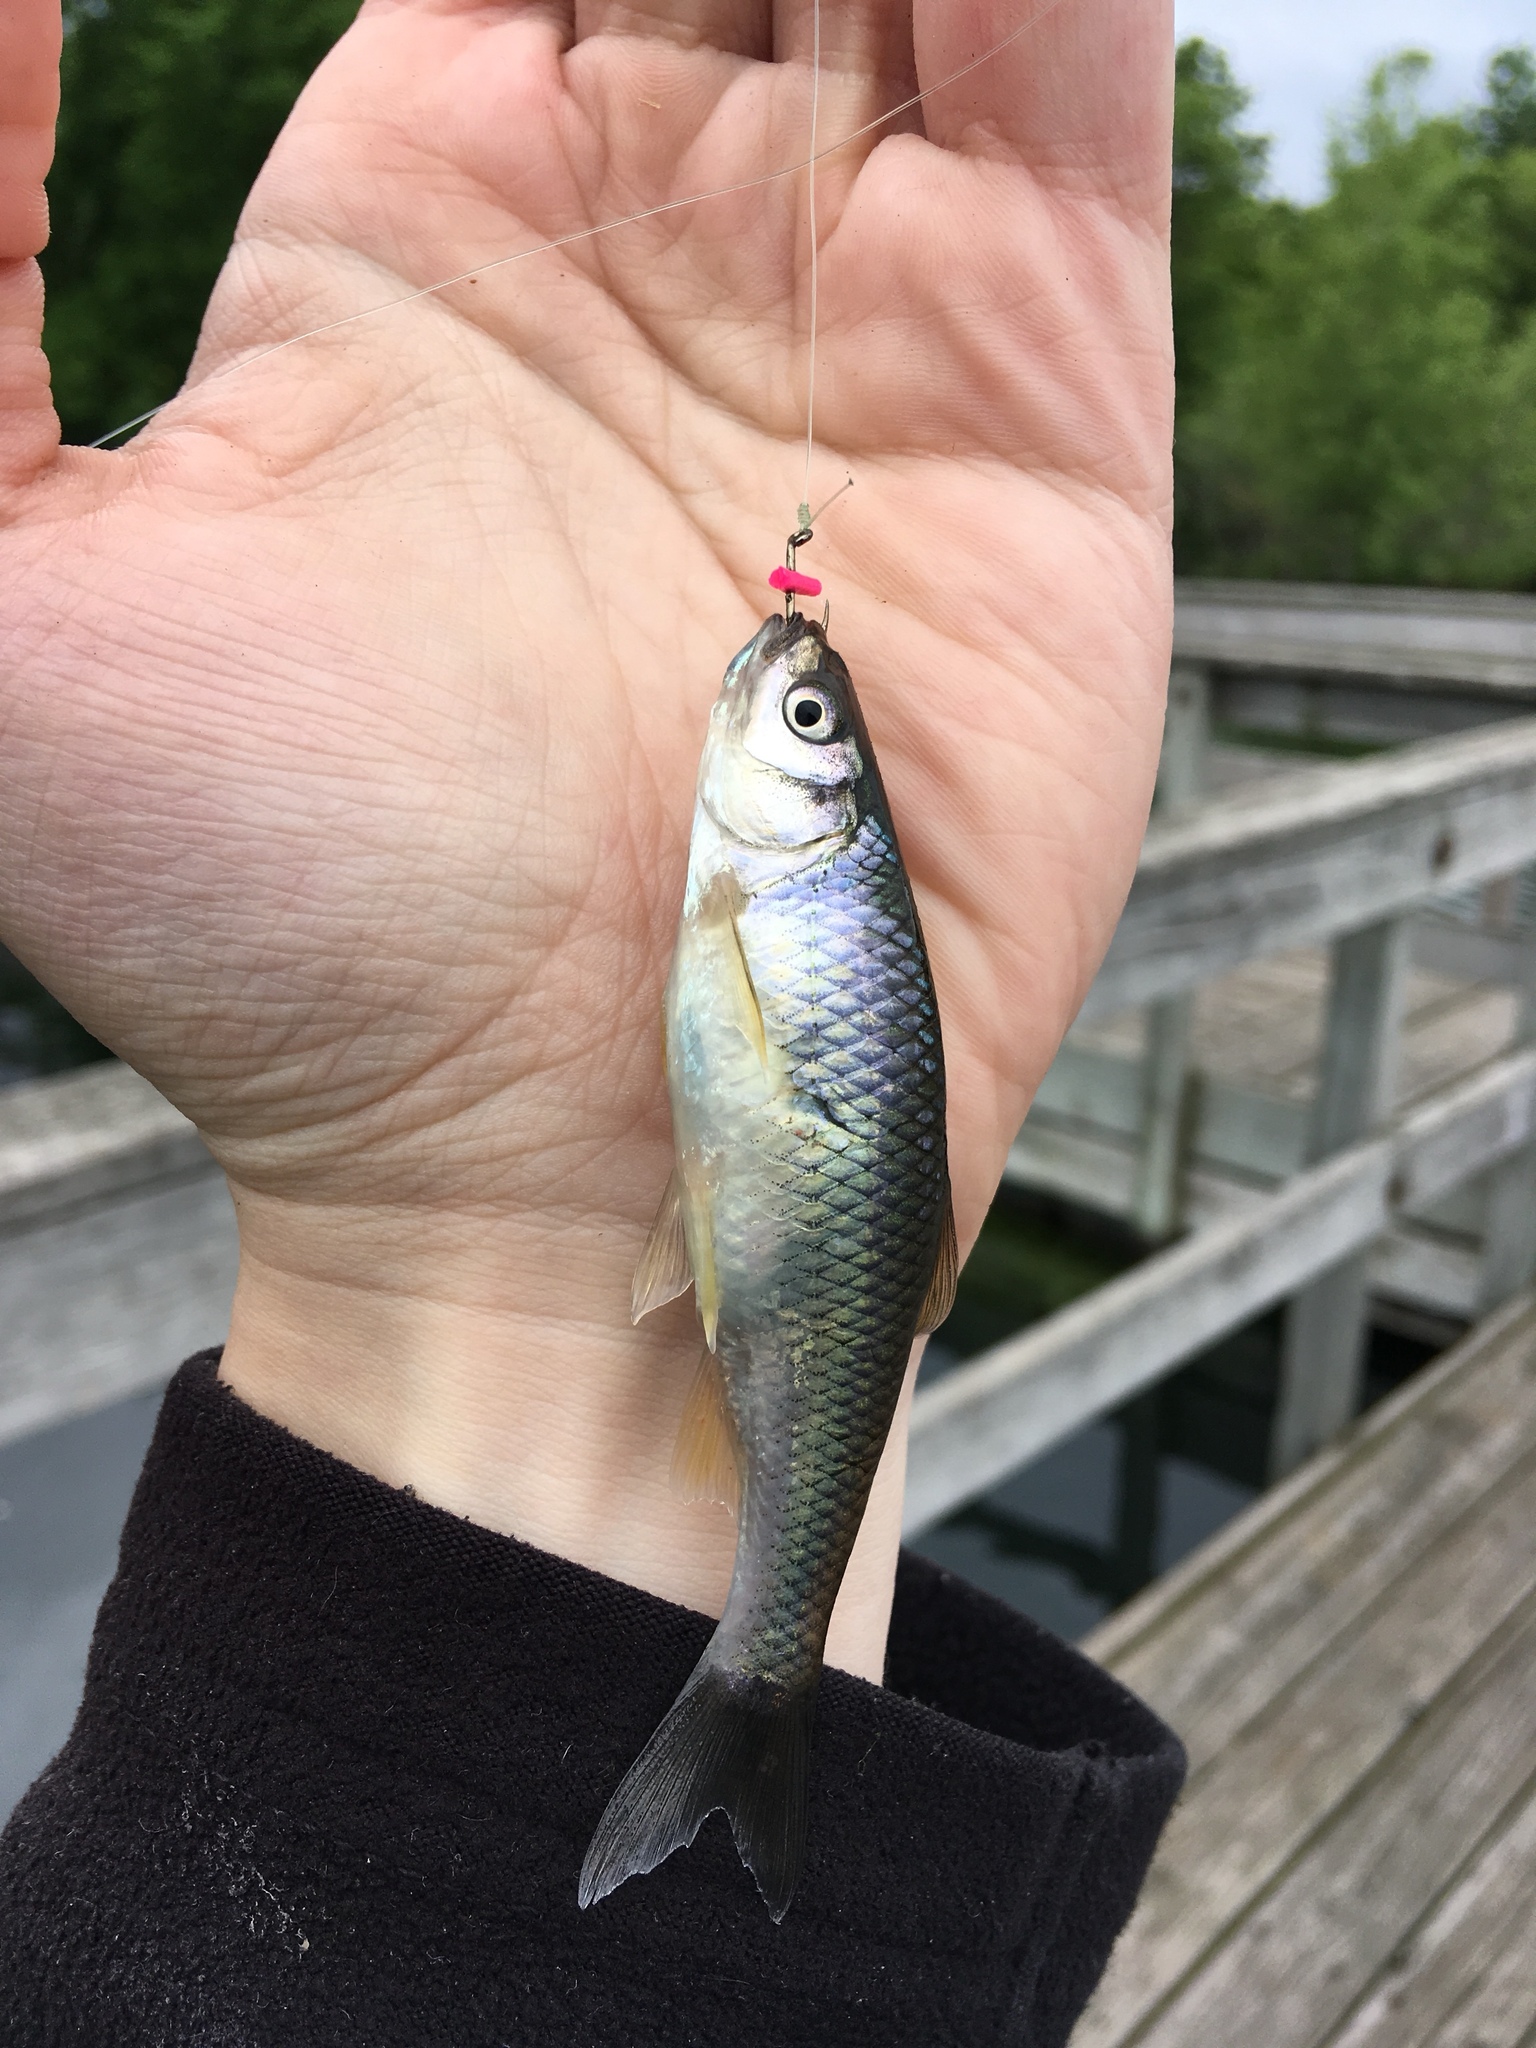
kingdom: Animalia
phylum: Chordata
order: Cypriniformes
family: Cyprinidae
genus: Cyprinella
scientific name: Cyprinella spiloptera
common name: Spotfin shiner
